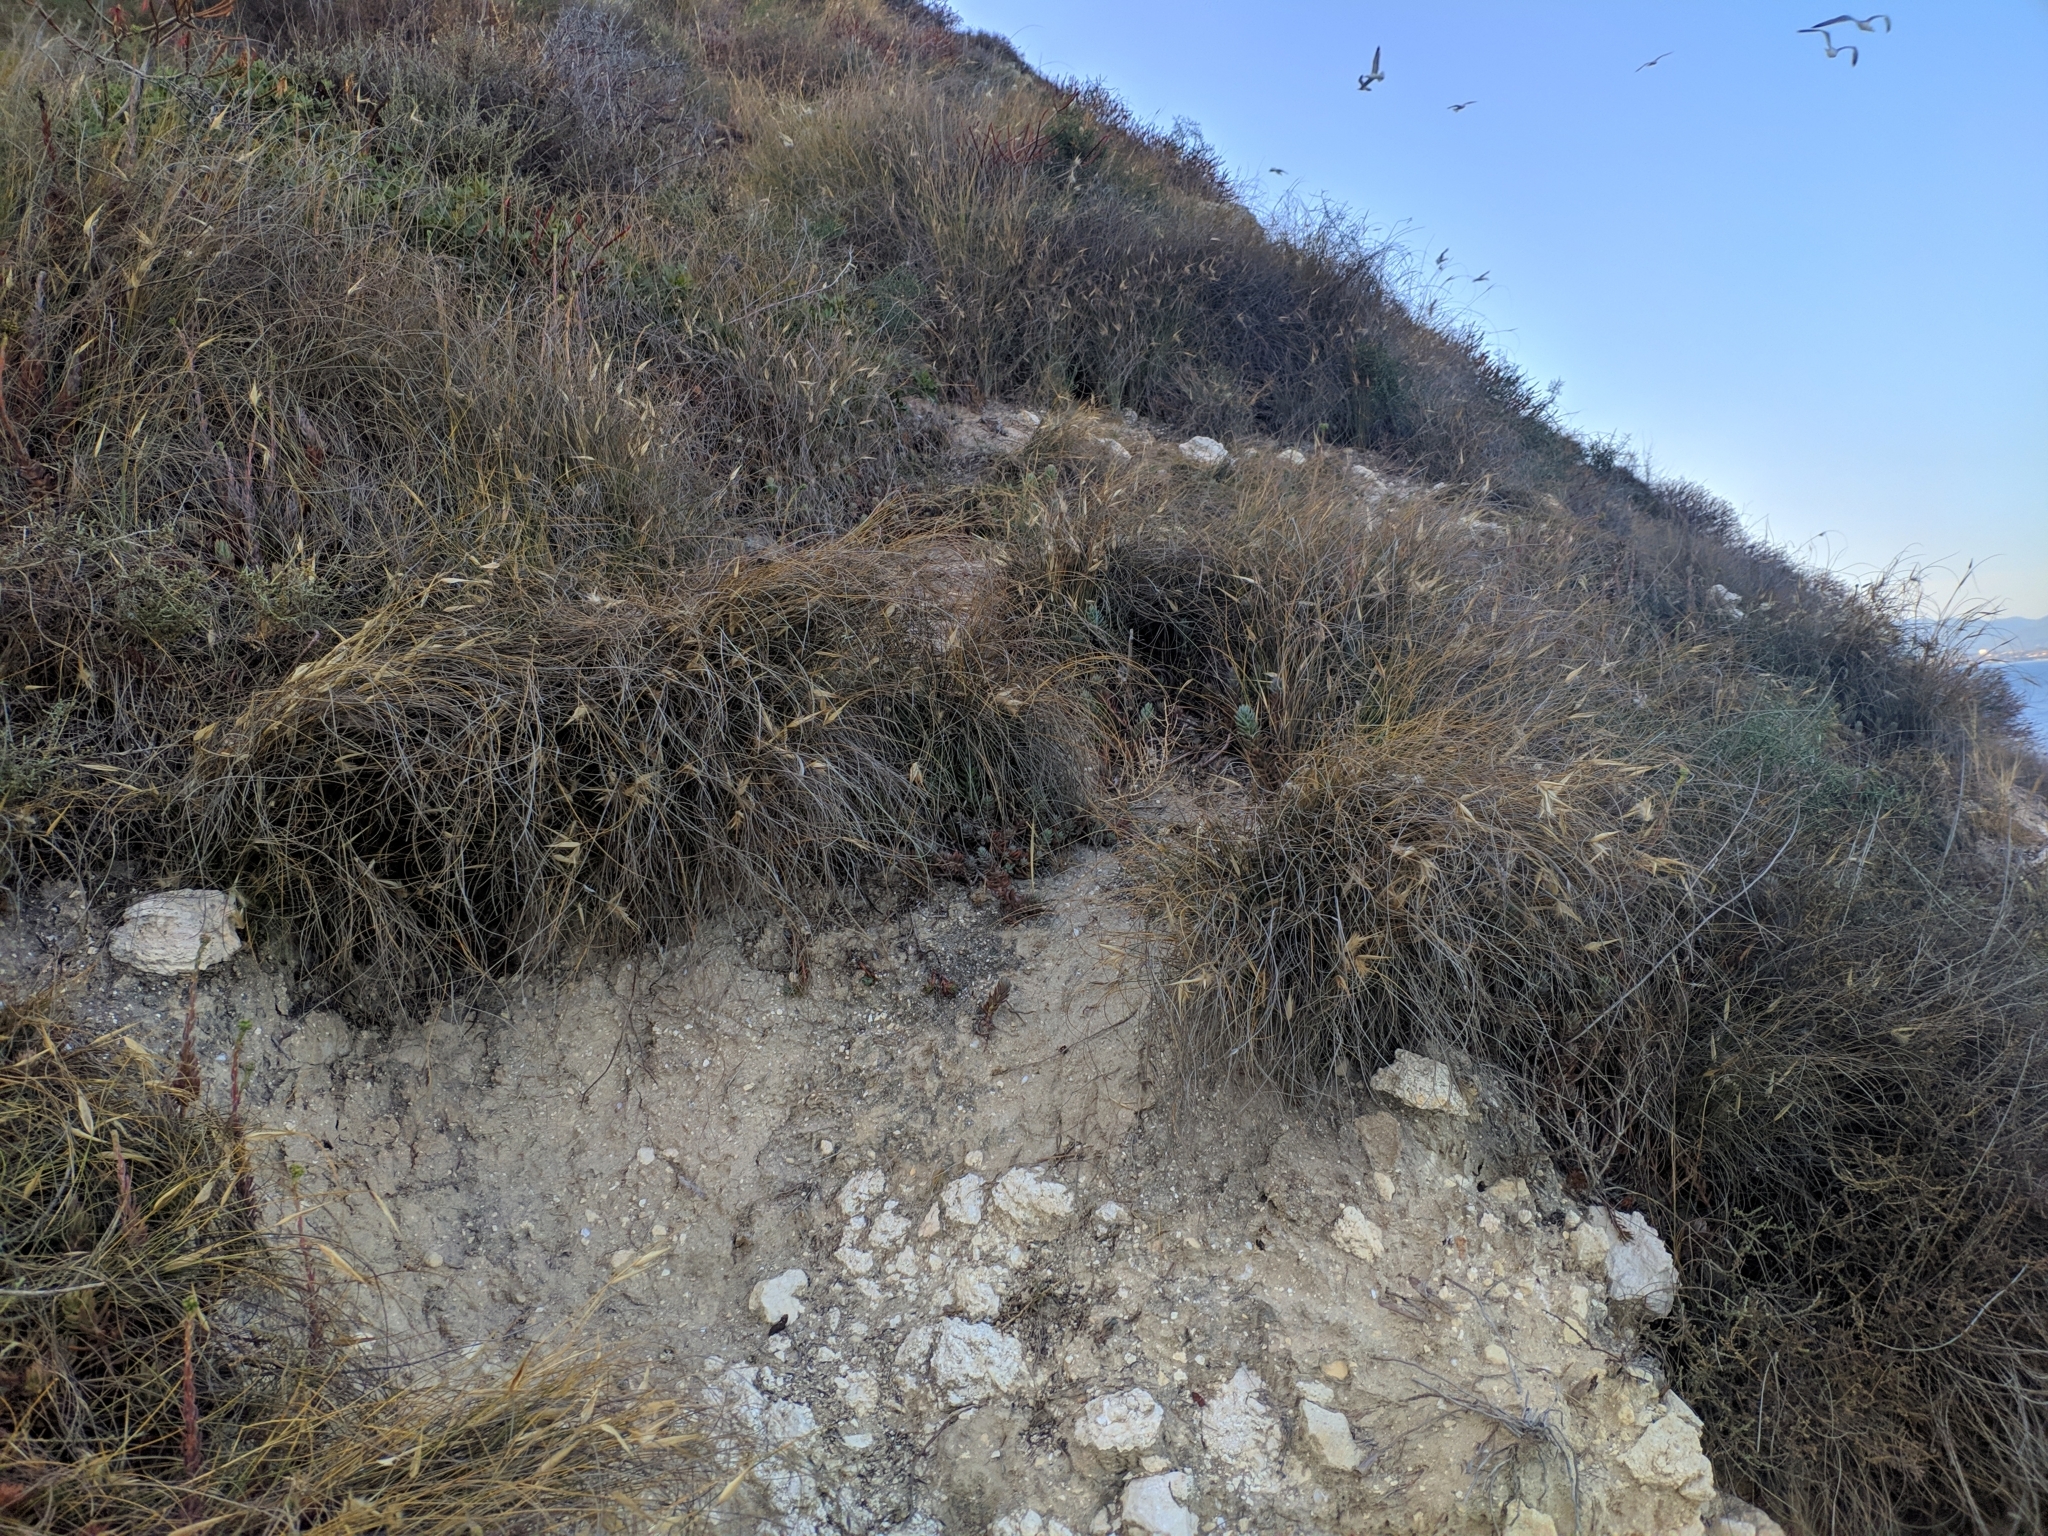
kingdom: Plantae
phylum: Tracheophyta
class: Liliopsida
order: Poales
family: Poaceae
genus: Lygeum
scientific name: Lygeum spartum
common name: Albardine
